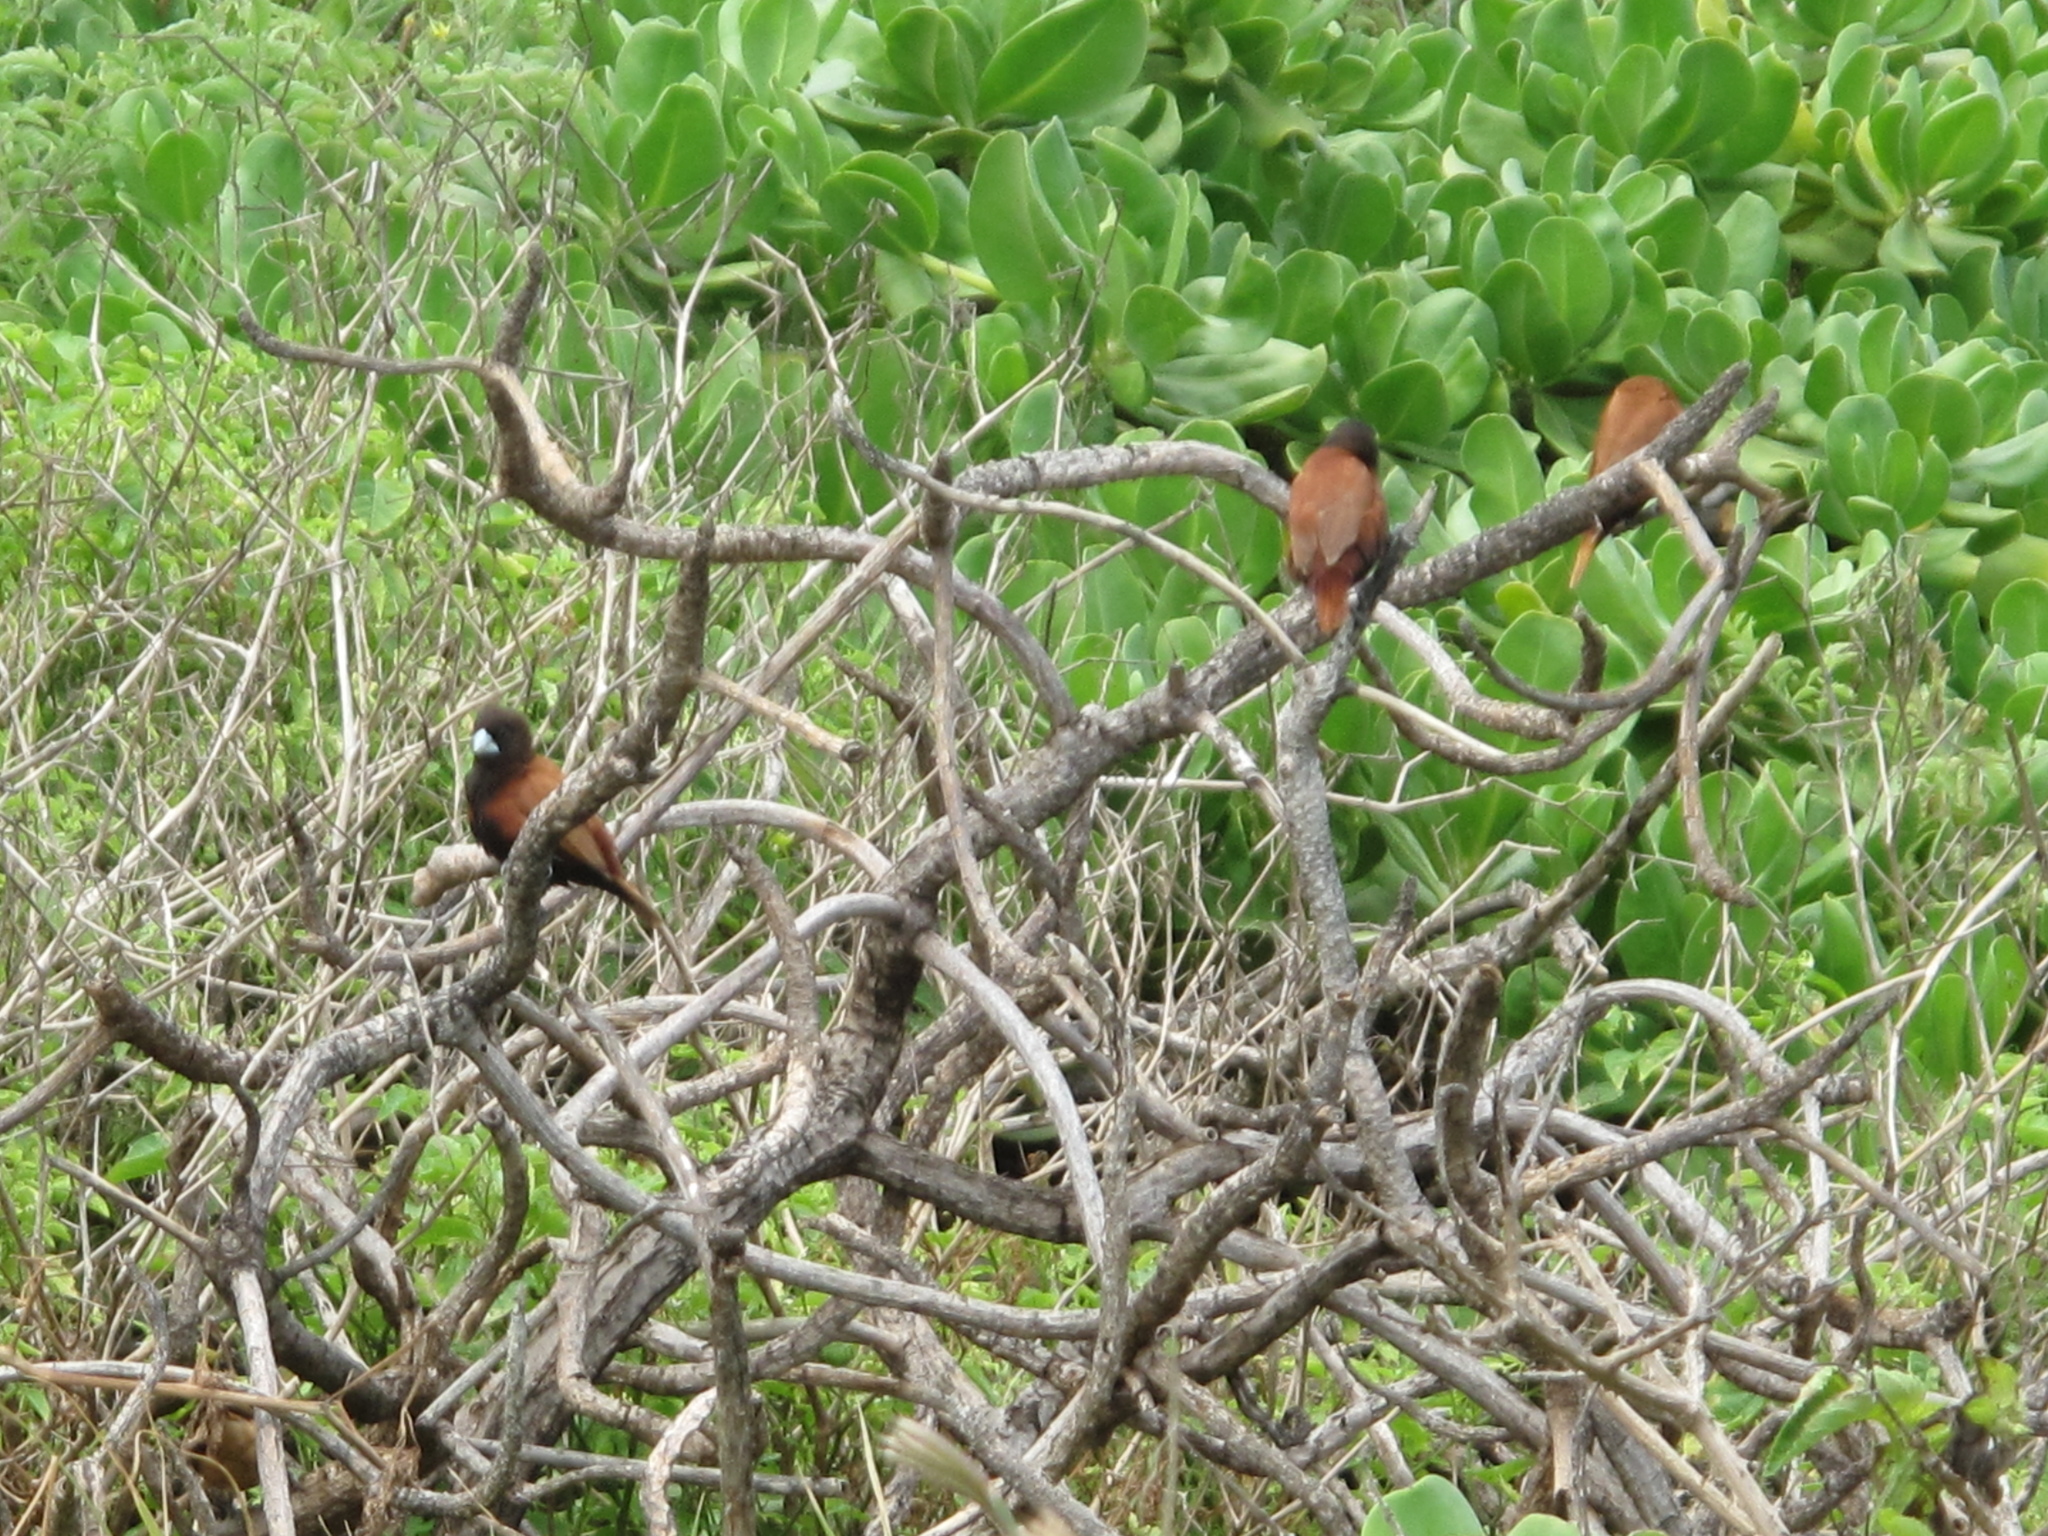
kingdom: Animalia
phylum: Chordata
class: Aves
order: Passeriformes
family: Estrildidae
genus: Lonchura
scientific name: Lonchura atricapilla
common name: Chestnut munia
